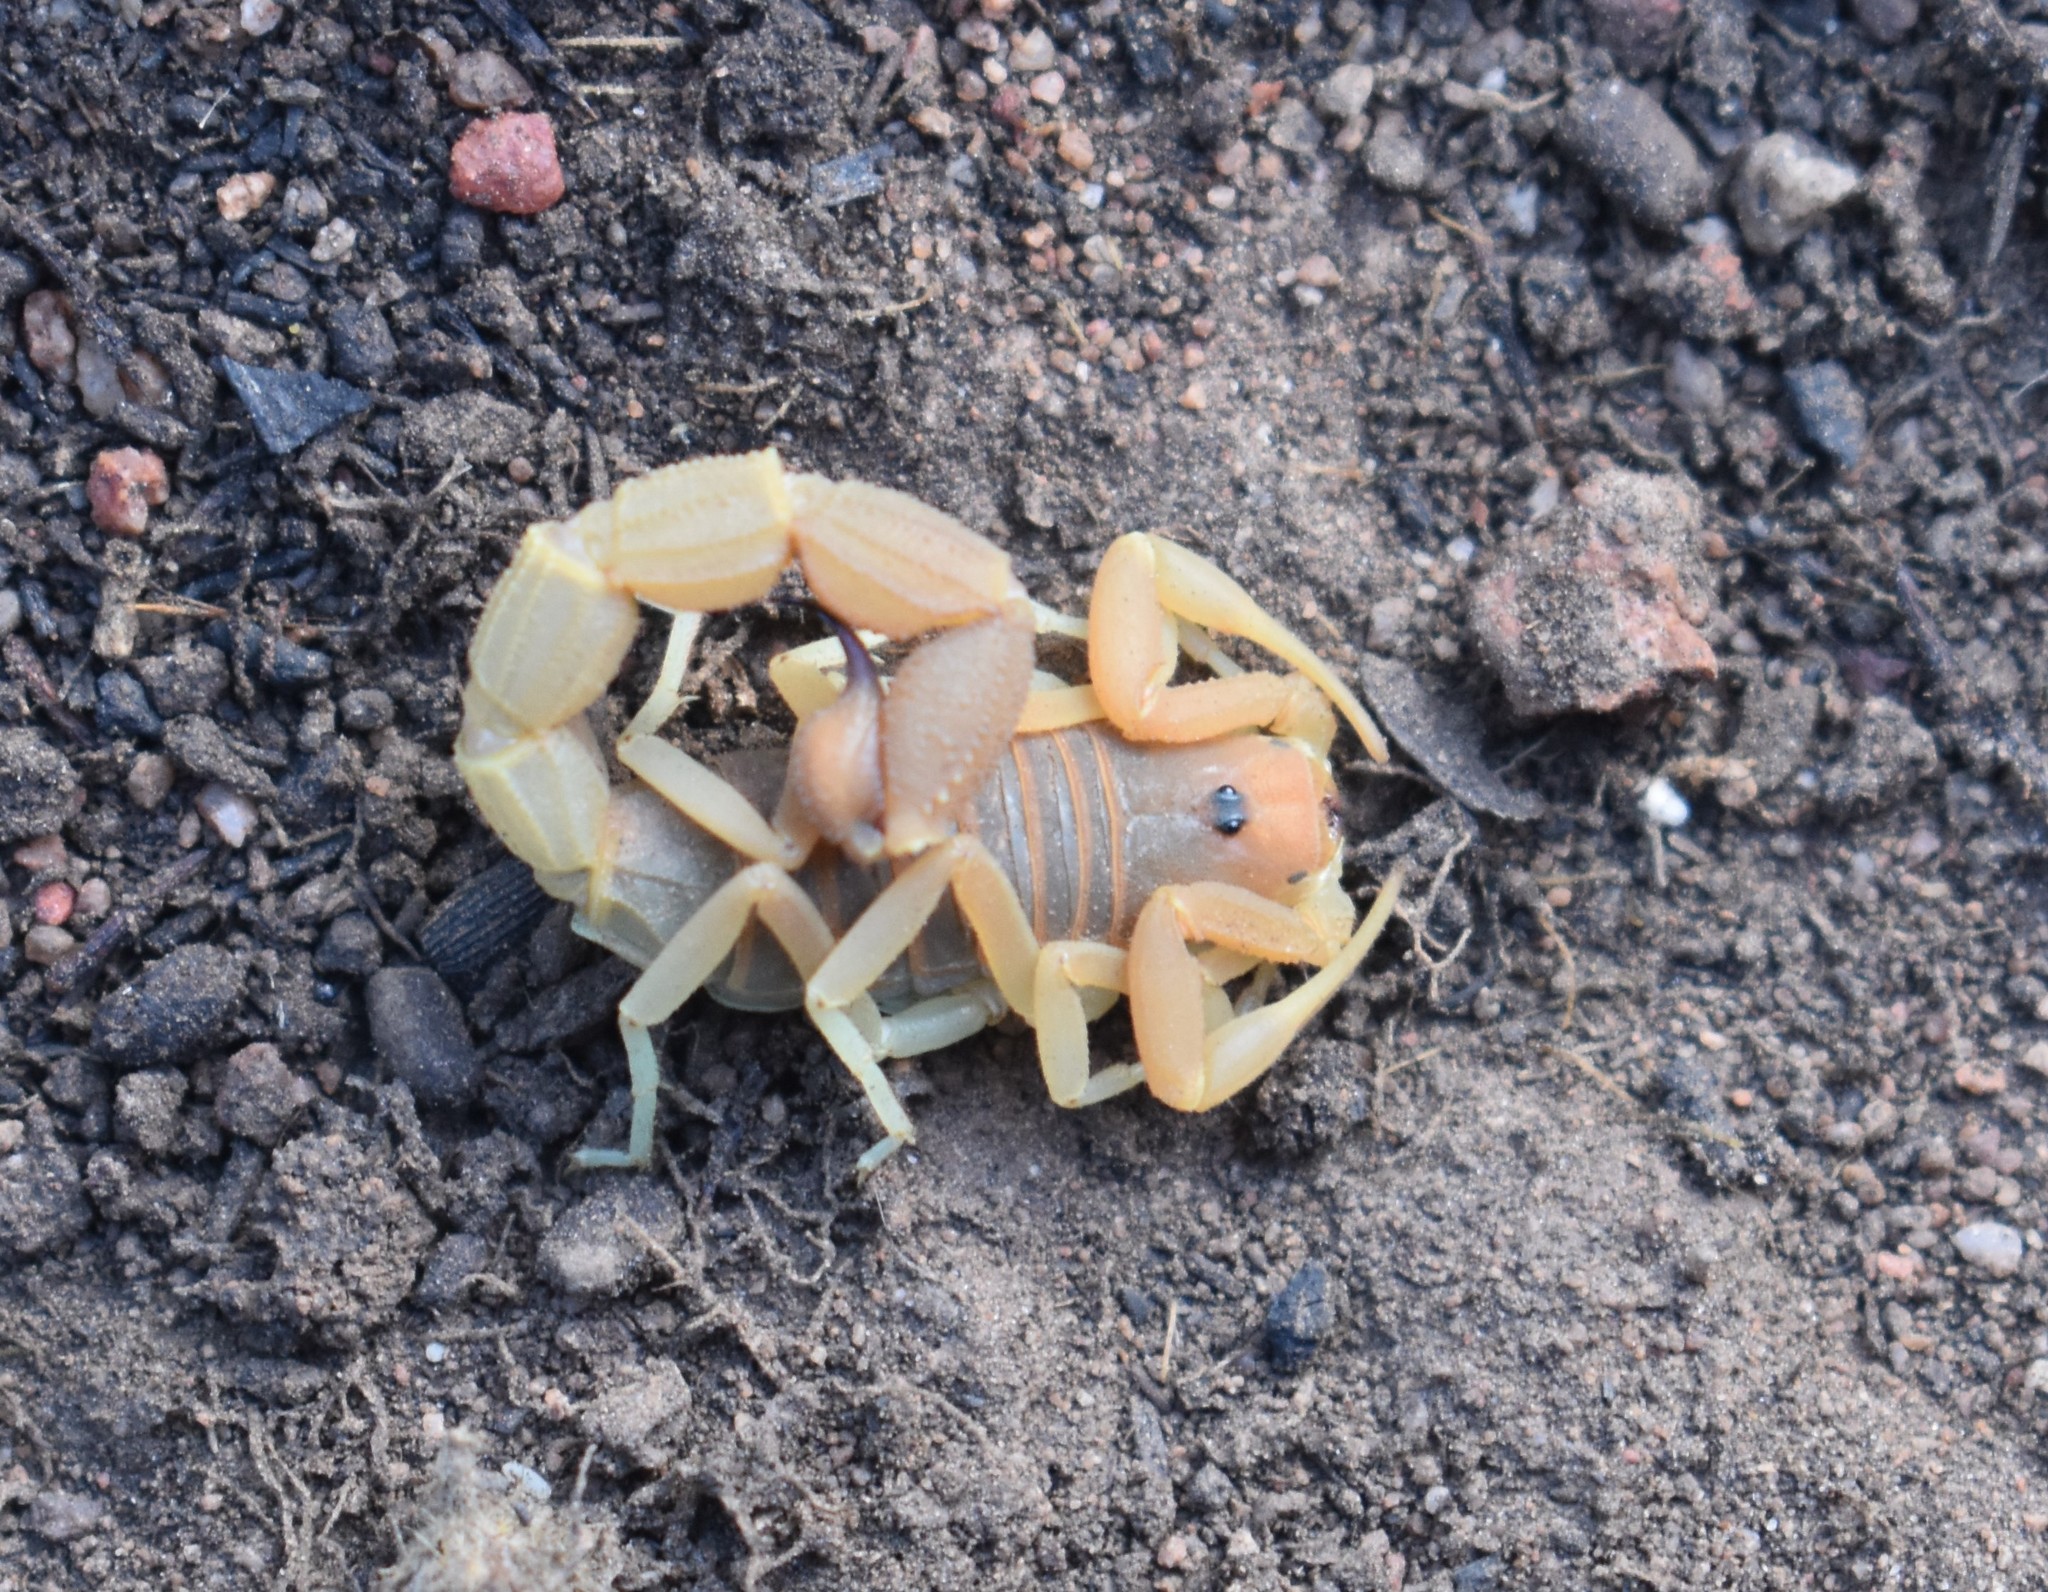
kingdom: Animalia
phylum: Arthropoda
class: Arachnida
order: Scorpiones
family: Buthidae
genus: Parabuthus
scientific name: Parabuthus planicauda
